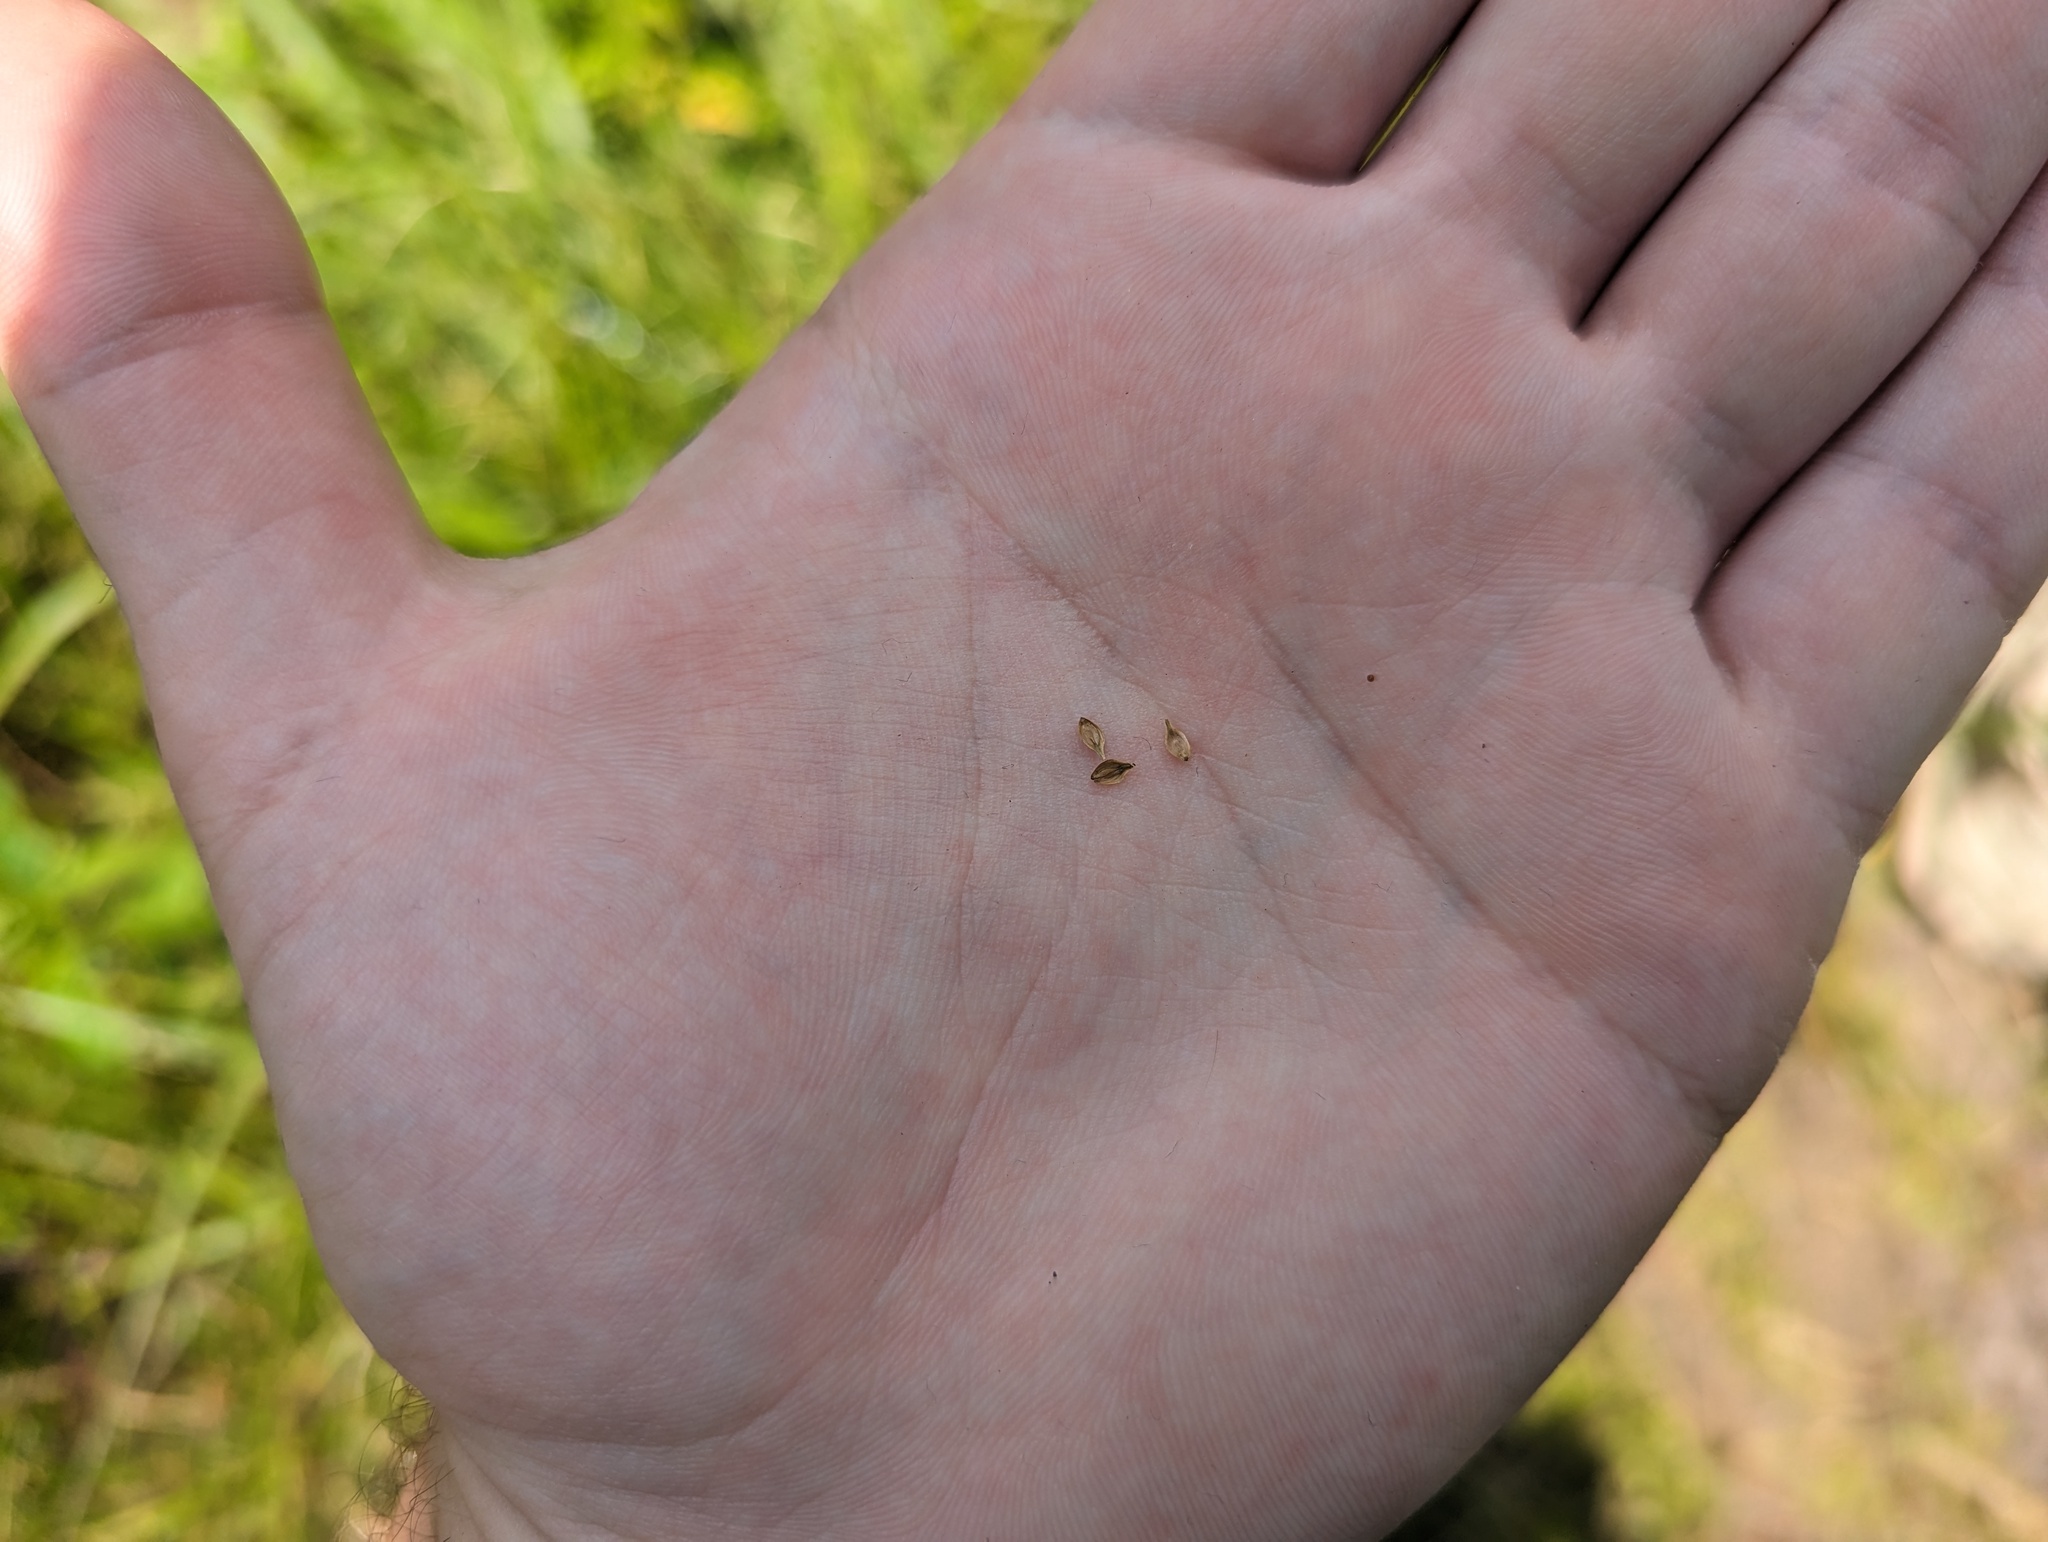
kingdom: Plantae
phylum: Tracheophyta
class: Liliopsida
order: Poales
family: Cyperaceae
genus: Carex
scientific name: Carex longii
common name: Long's sedge
